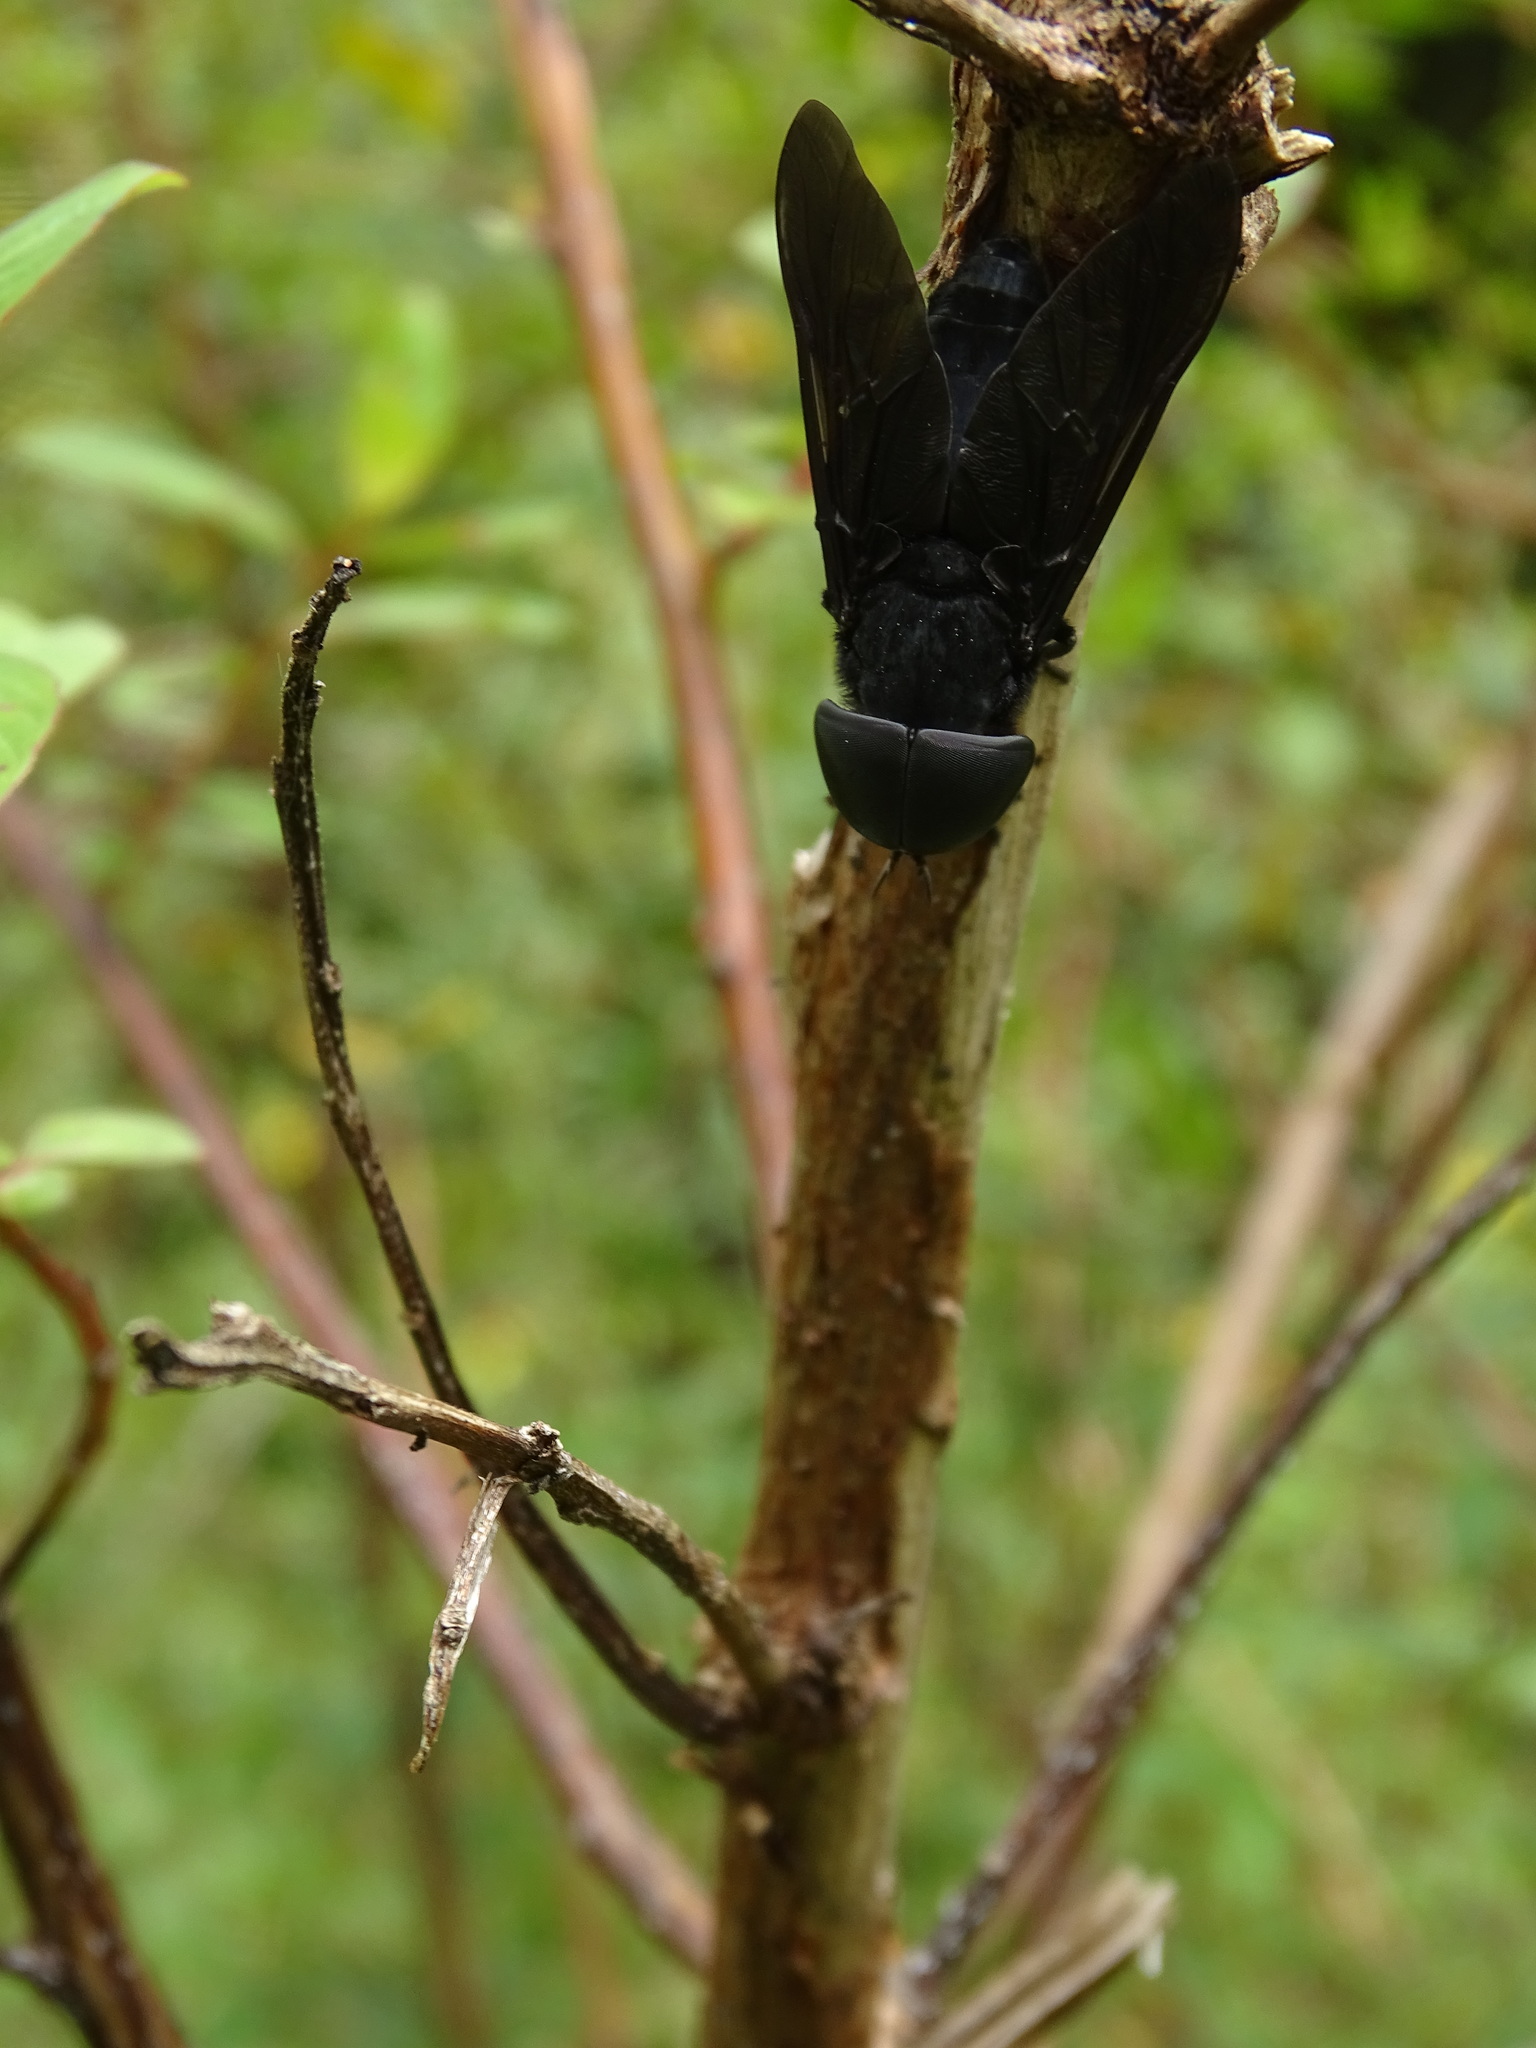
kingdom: Animalia
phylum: Arthropoda
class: Insecta
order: Diptera
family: Tabanidae
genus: Tabanus
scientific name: Tabanus atratus
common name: Black horse fly
